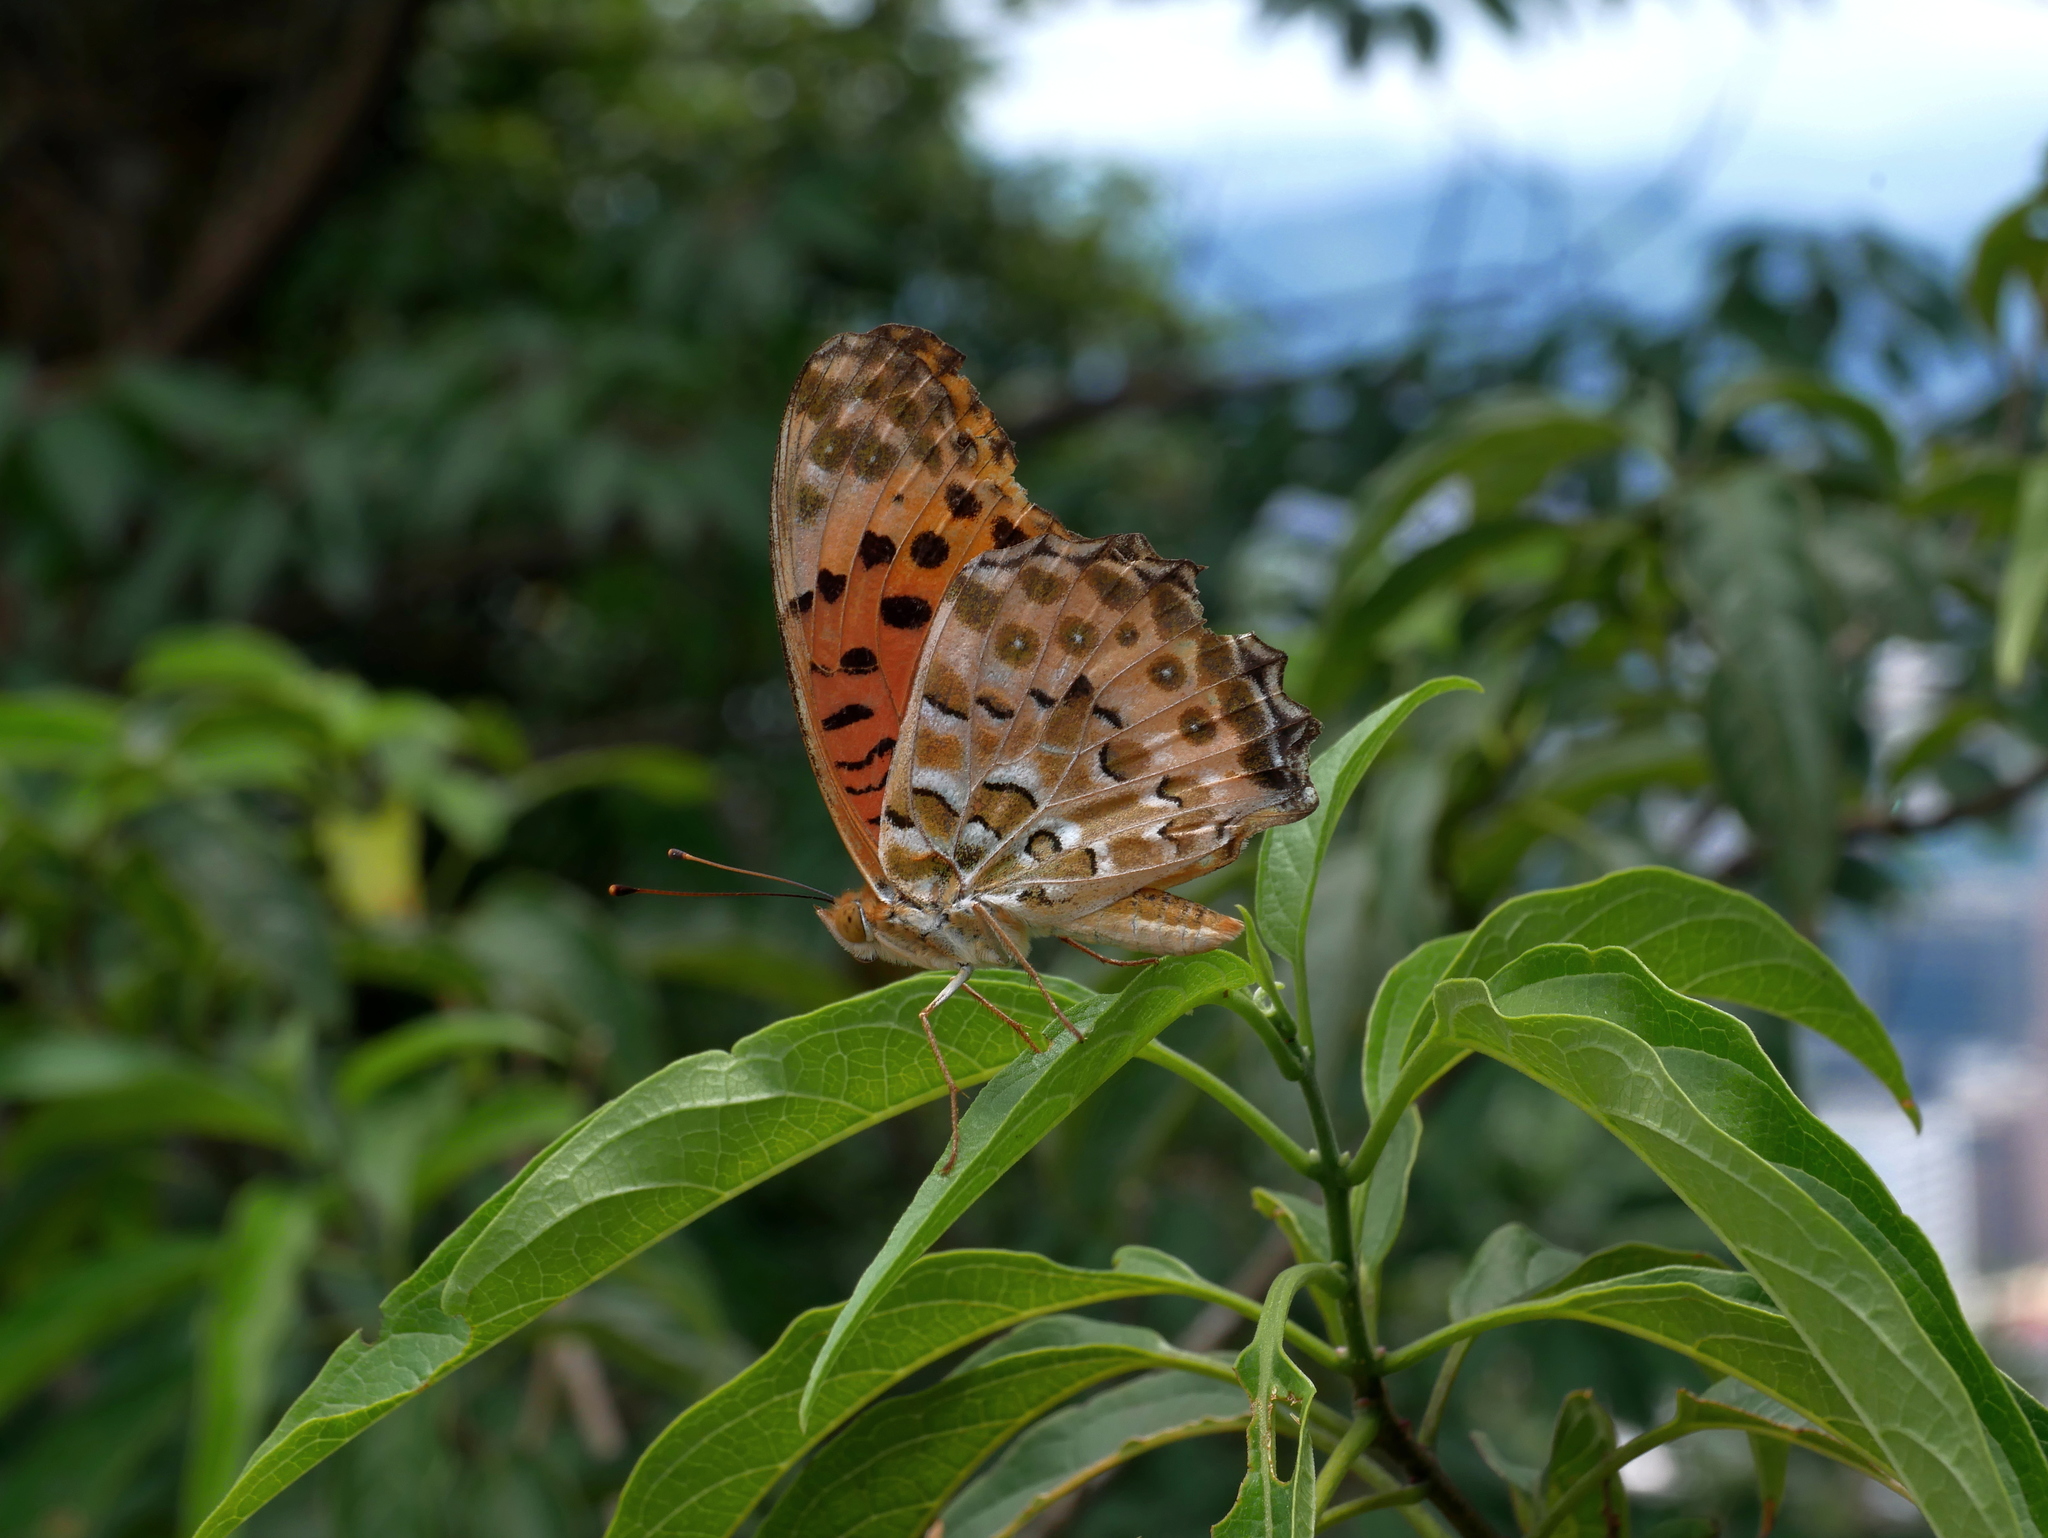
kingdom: Animalia
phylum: Arthropoda
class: Insecta
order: Lepidoptera
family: Nymphalidae
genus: Argynnis
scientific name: Argynnis hyperbius
